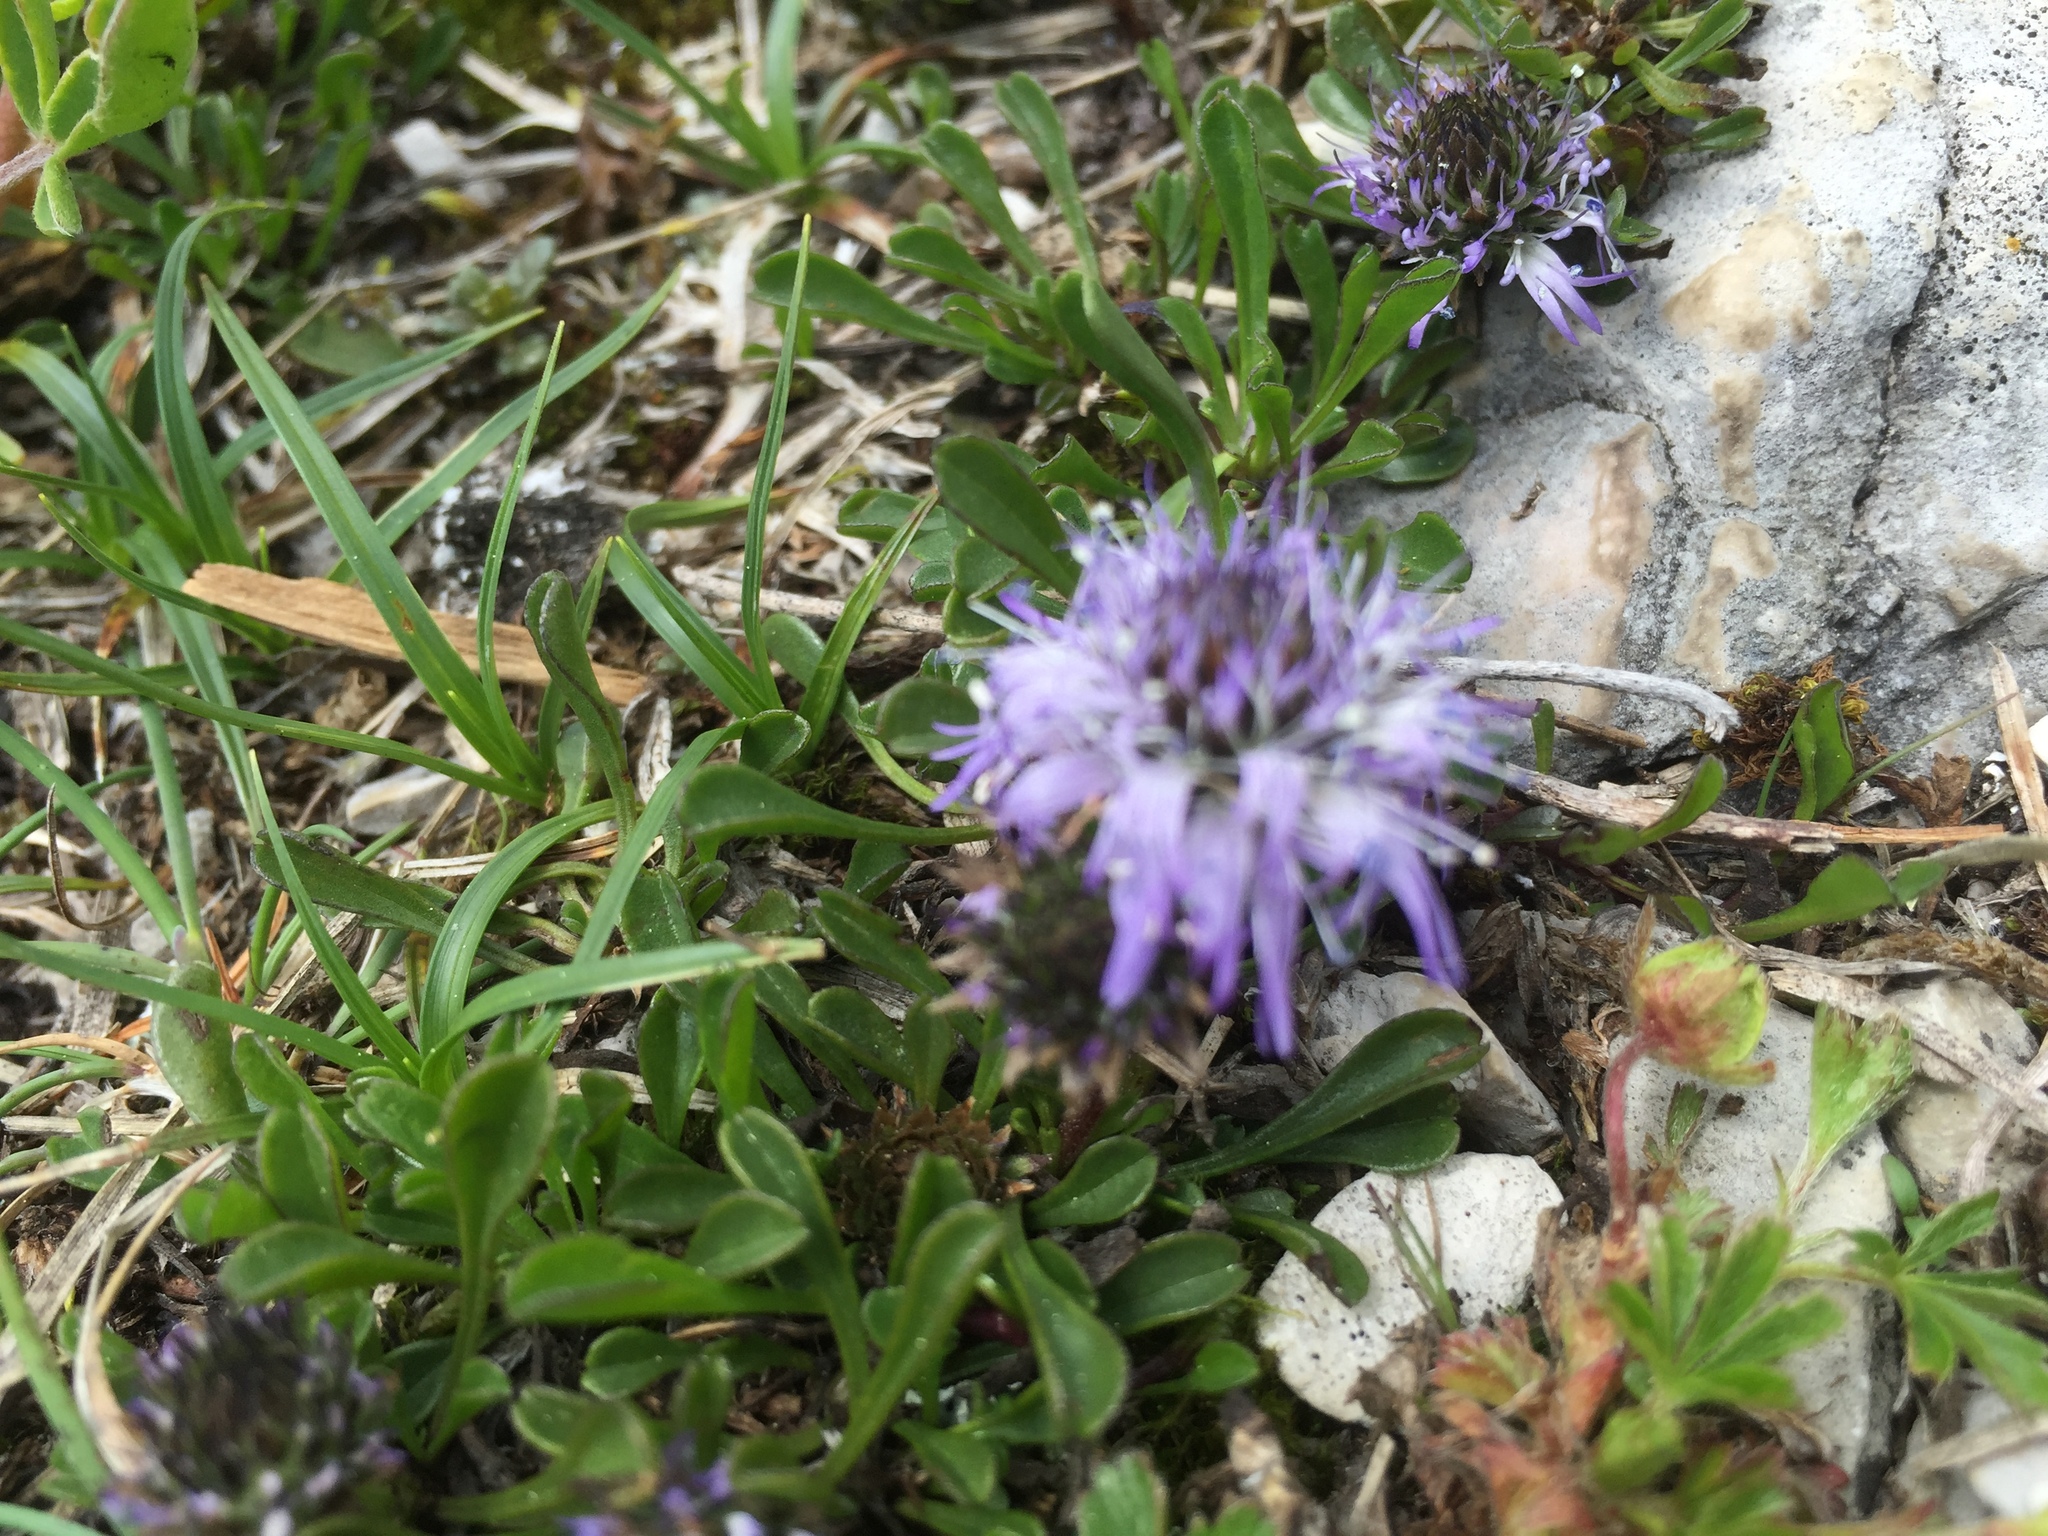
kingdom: Plantae
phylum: Tracheophyta
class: Magnoliopsida
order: Lamiales
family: Plantaginaceae
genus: Globularia
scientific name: Globularia cordifolia
